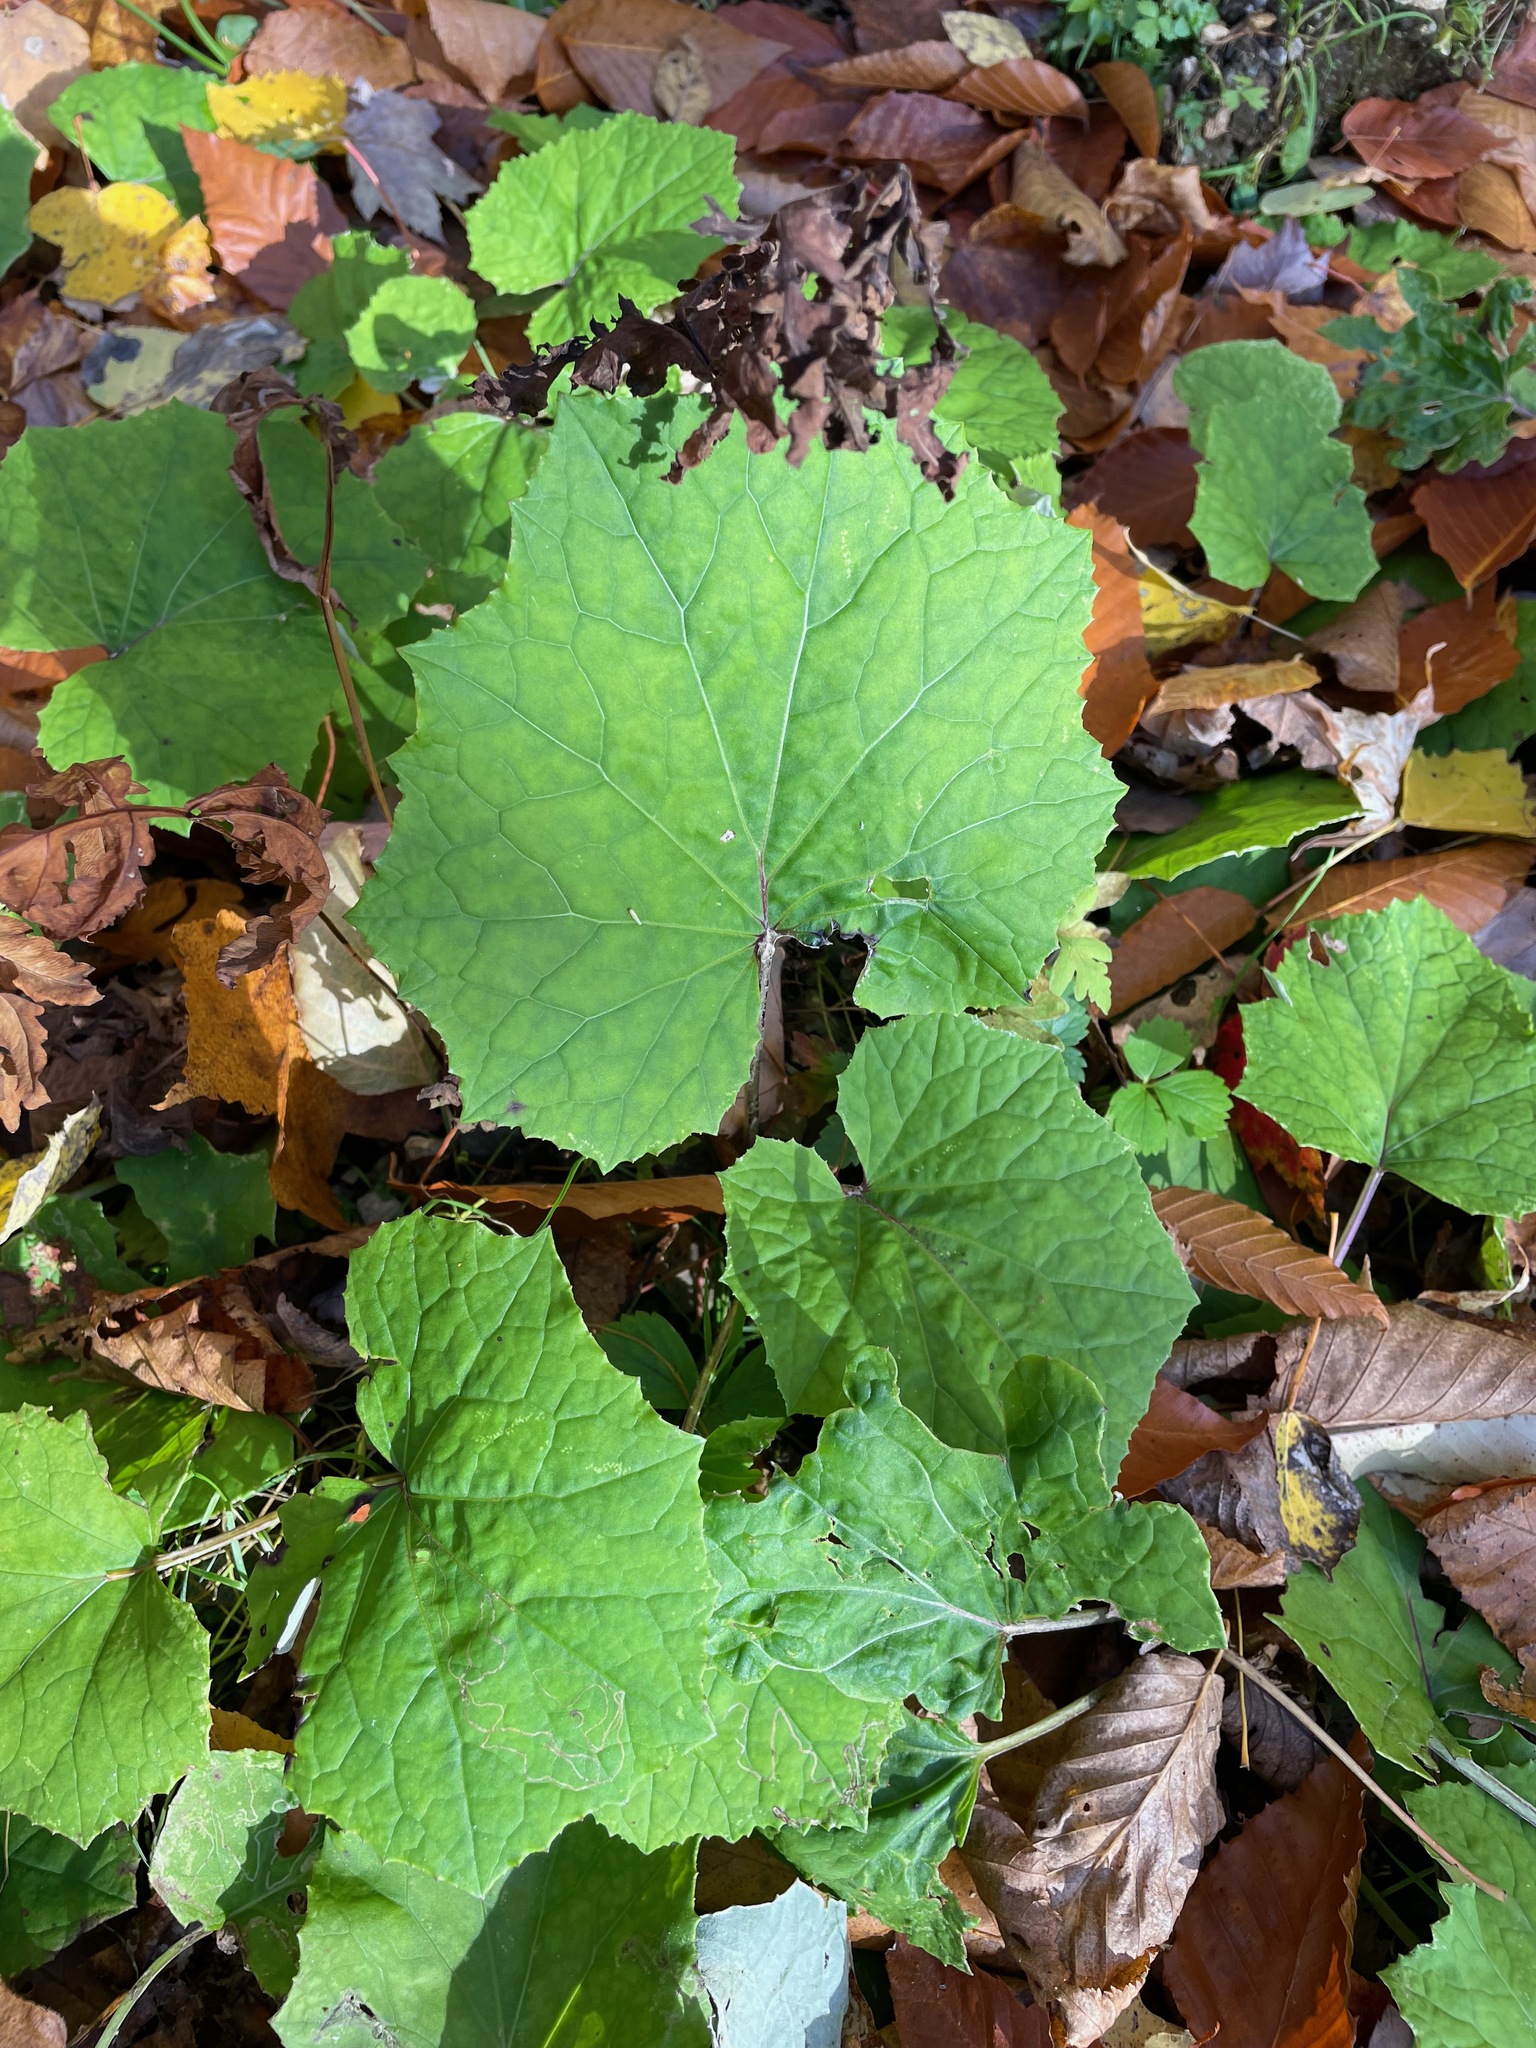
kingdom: Plantae
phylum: Tracheophyta
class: Magnoliopsida
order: Asterales
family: Asteraceae
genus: Tussilago
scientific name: Tussilago farfara
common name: Coltsfoot
